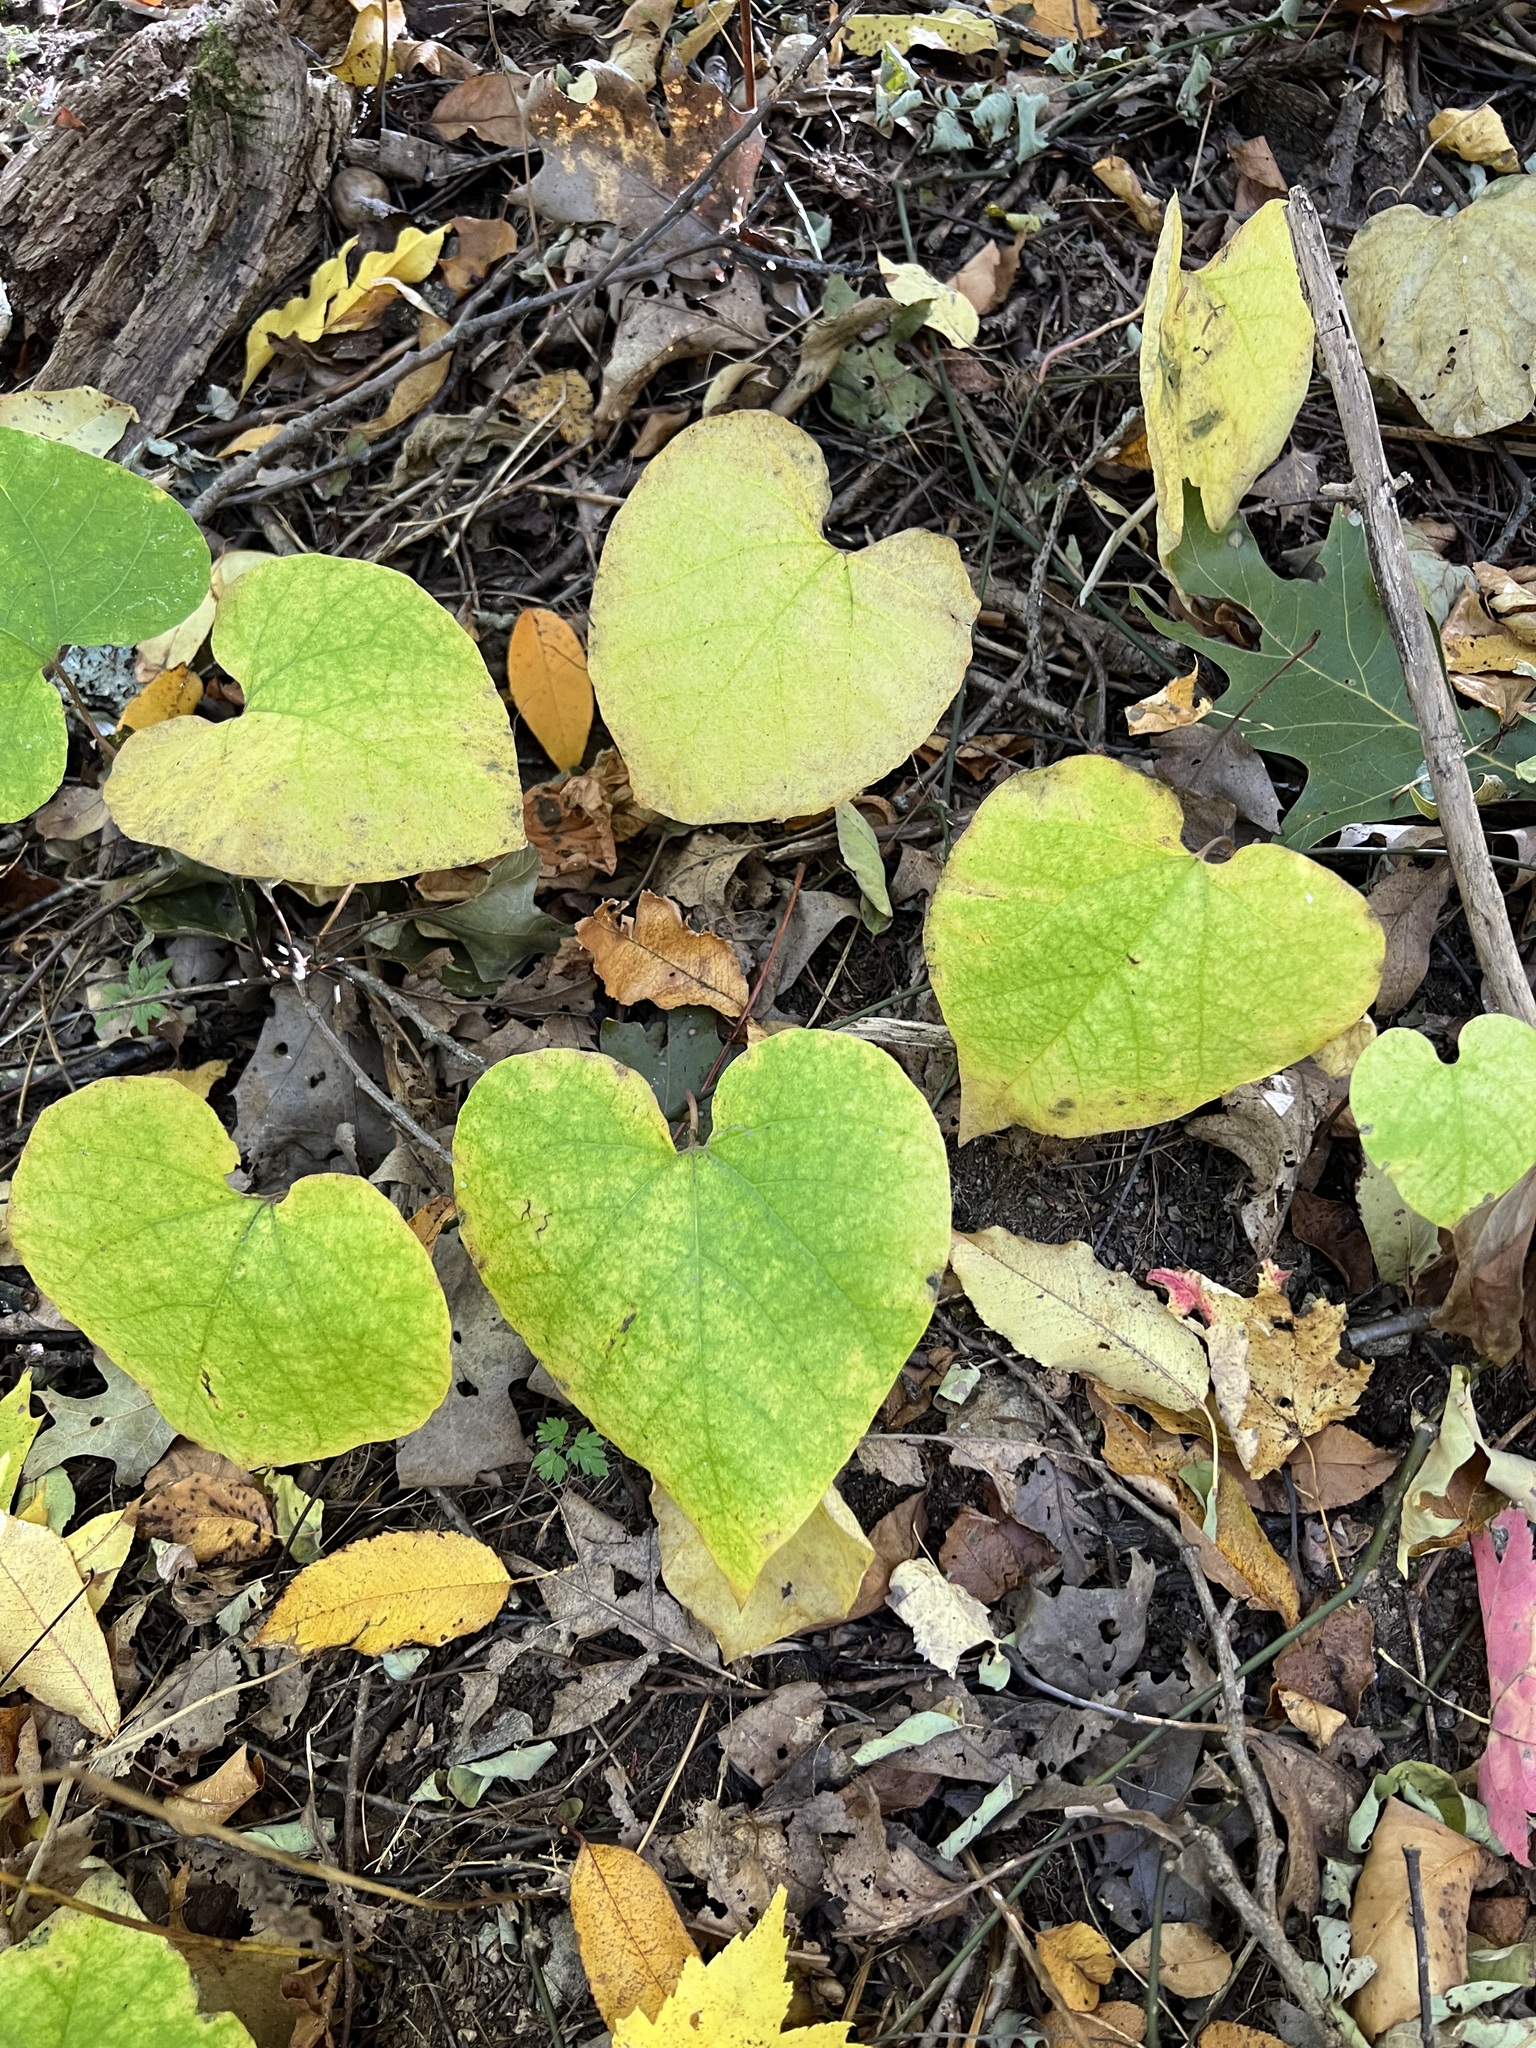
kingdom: Plantae
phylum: Tracheophyta
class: Magnoliopsida
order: Piperales
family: Aristolochiaceae
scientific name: Aristolochiaceae
